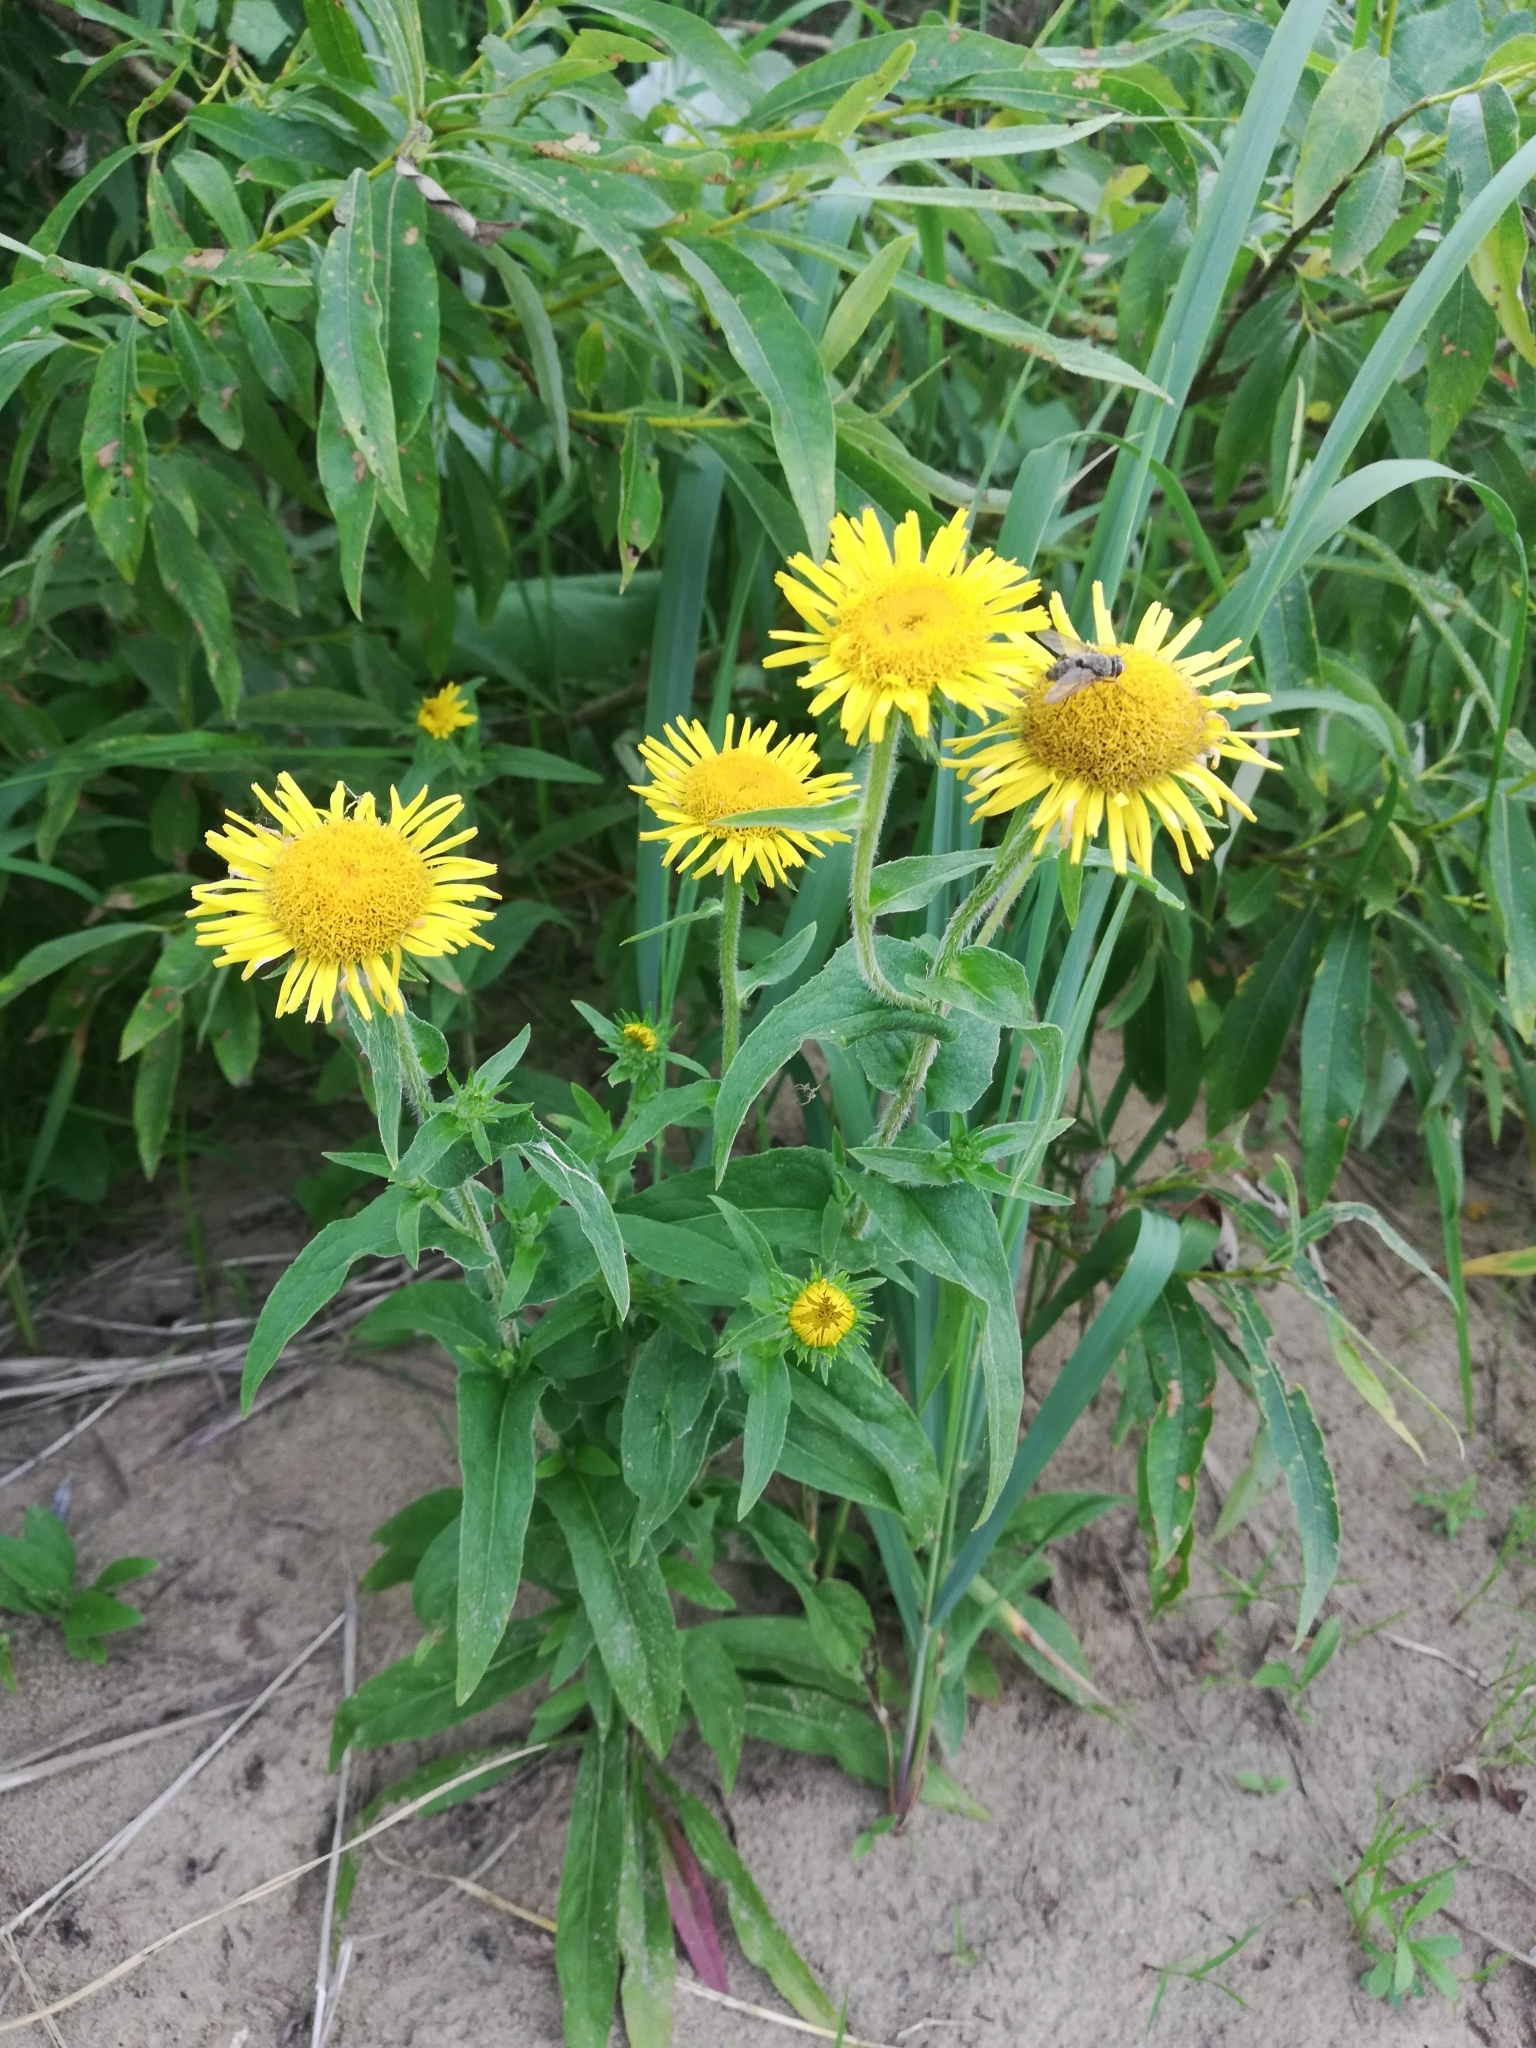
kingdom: Plantae
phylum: Tracheophyta
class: Magnoliopsida
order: Asterales
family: Asteraceae
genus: Pentanema
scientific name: Pentanema britannicum
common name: British elecampane
